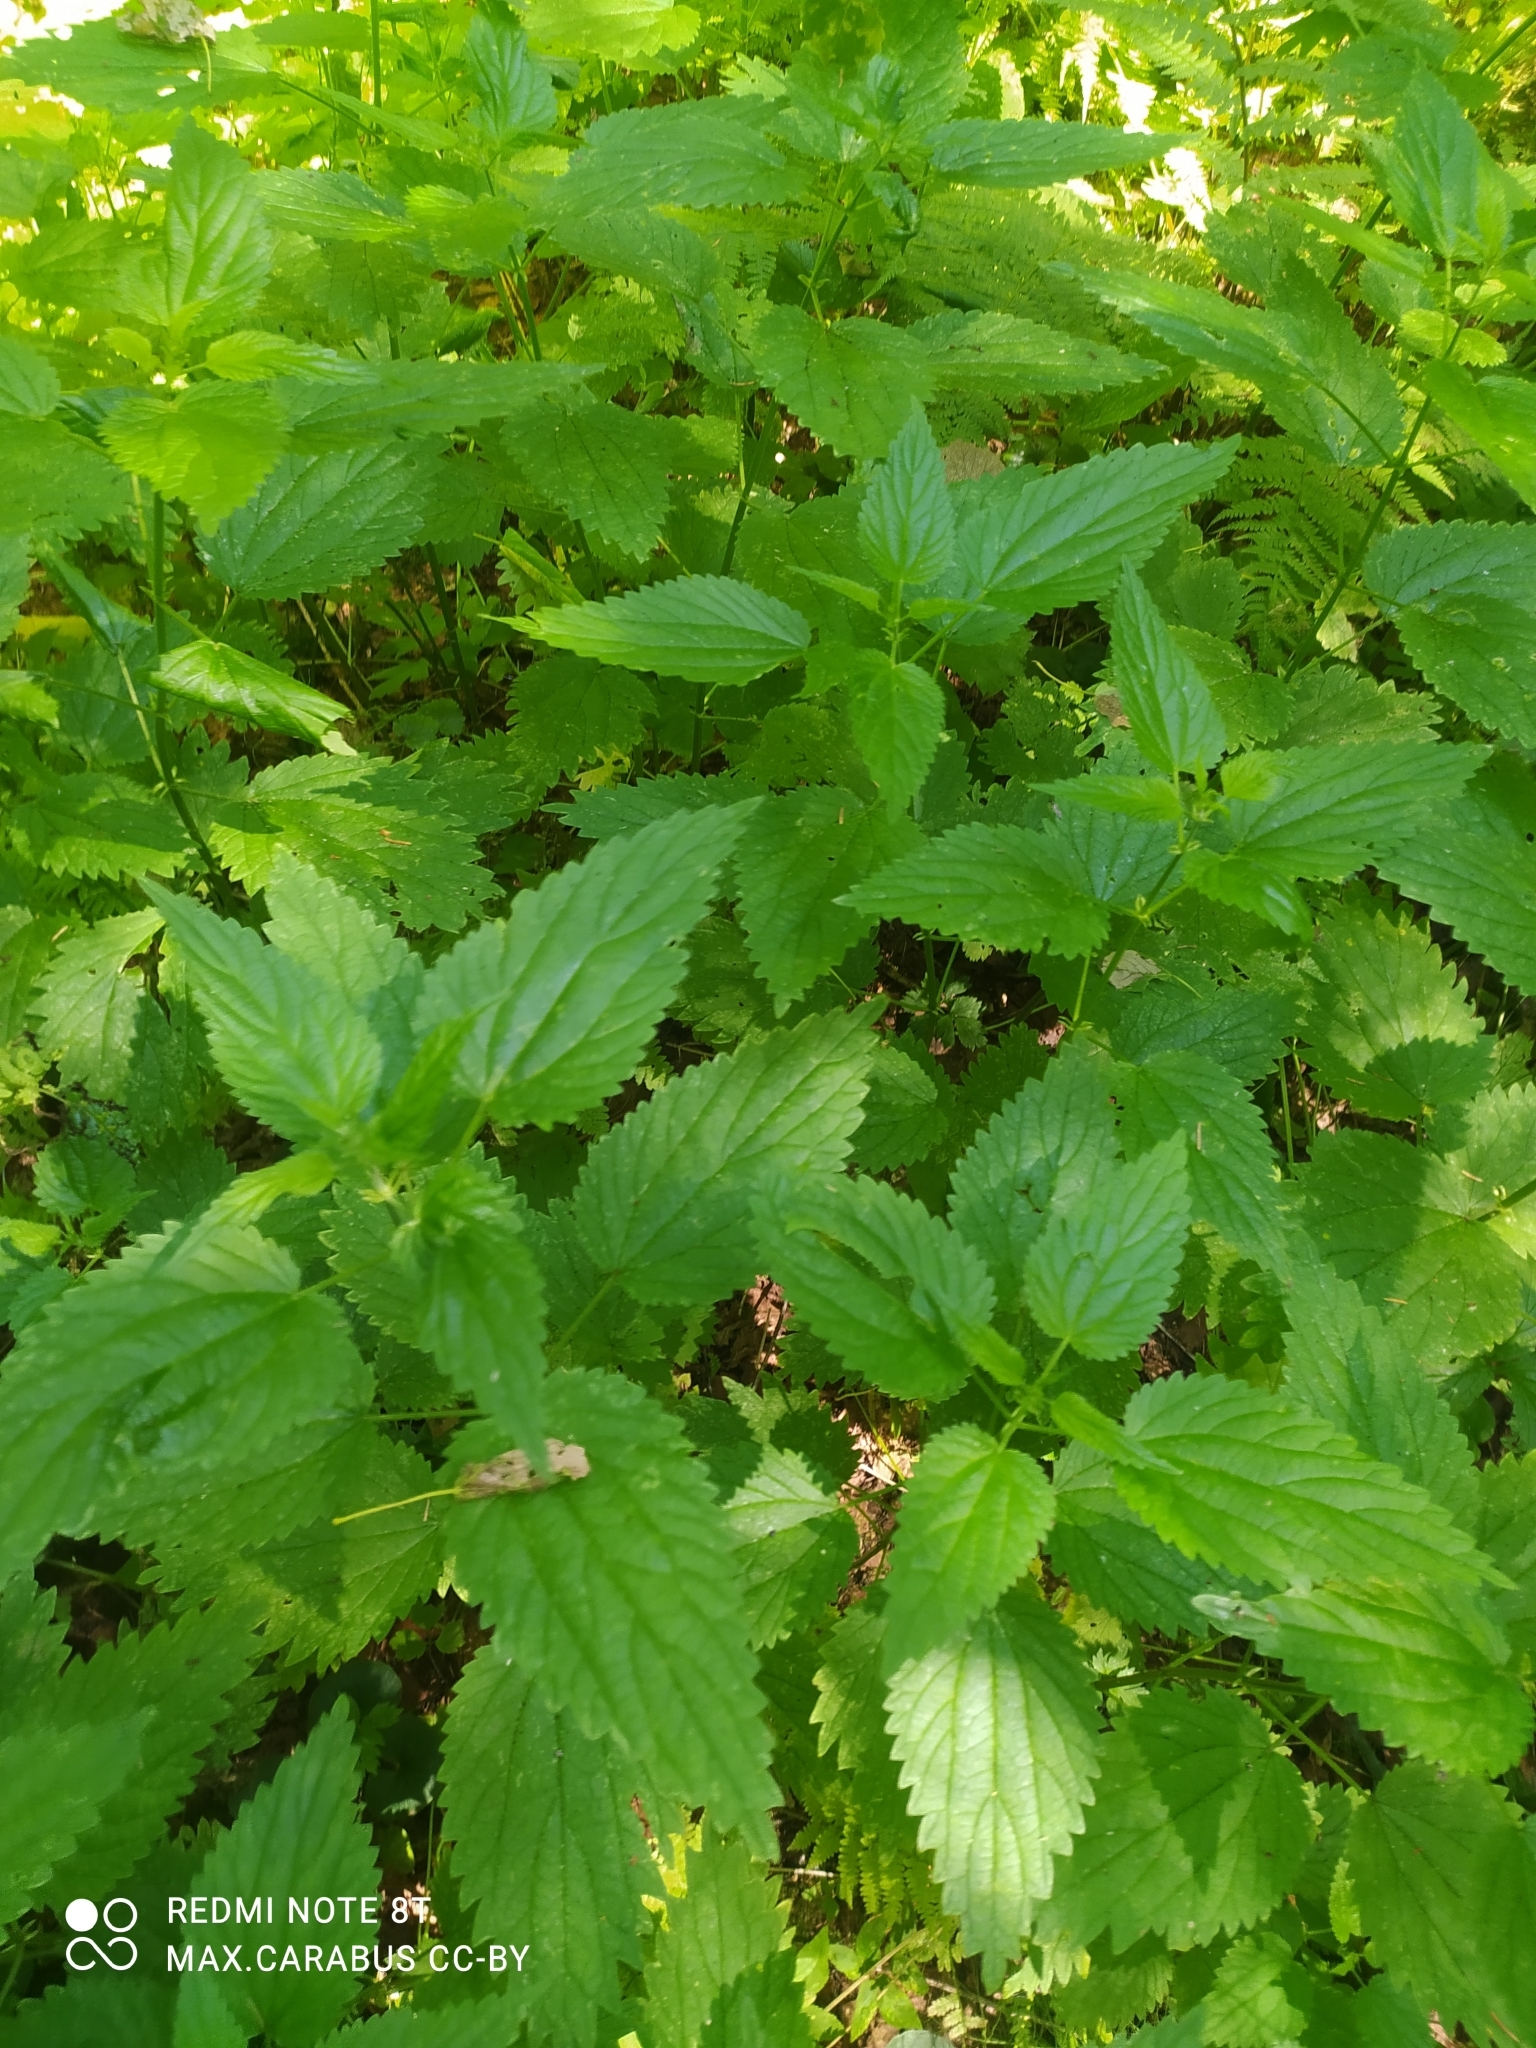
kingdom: Plantae
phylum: Tracheophyta
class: Magnoliopsida
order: Rosales
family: Urticaceae
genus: Urtica
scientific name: Urtica dioica
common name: Common nettle
